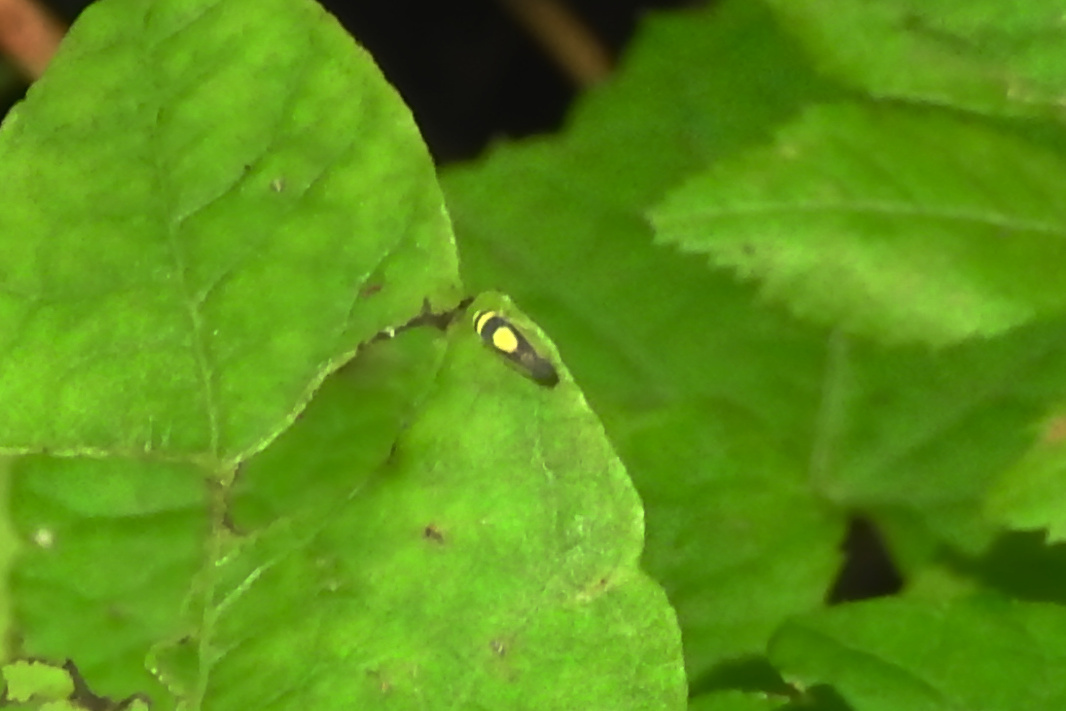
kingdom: Animalia
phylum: Arthropoda
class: Insecta
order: Hemiptera
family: Cicadellidae
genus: Colladonus
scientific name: Colladonus clitellarius
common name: The saddleback leafhopper
